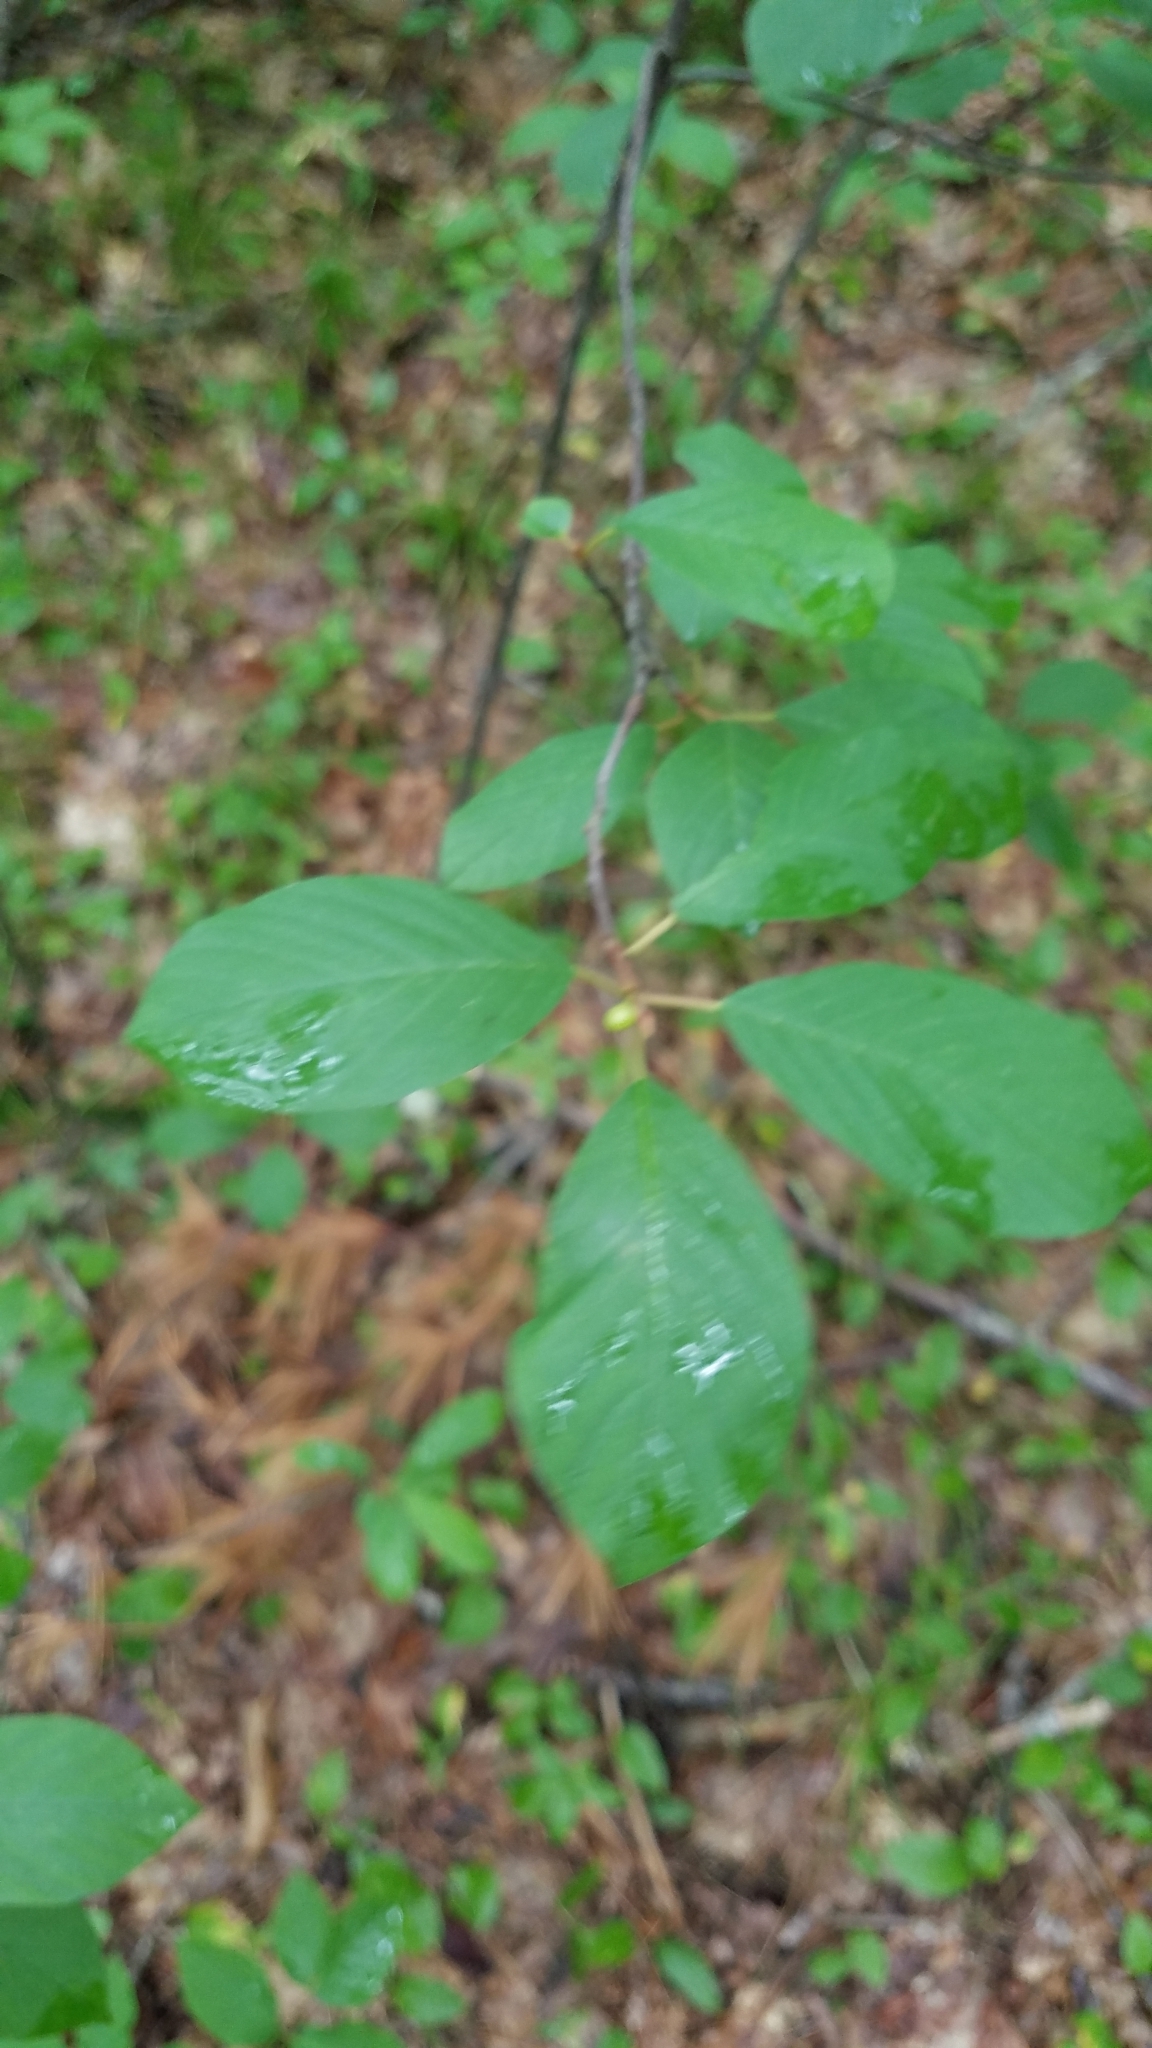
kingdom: Plantae
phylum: Tracheophyta
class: Magnoliopsida
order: Rosales
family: Rhamnaceae
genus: Frangula
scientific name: Frangula alnus
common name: Alder buckthorn
